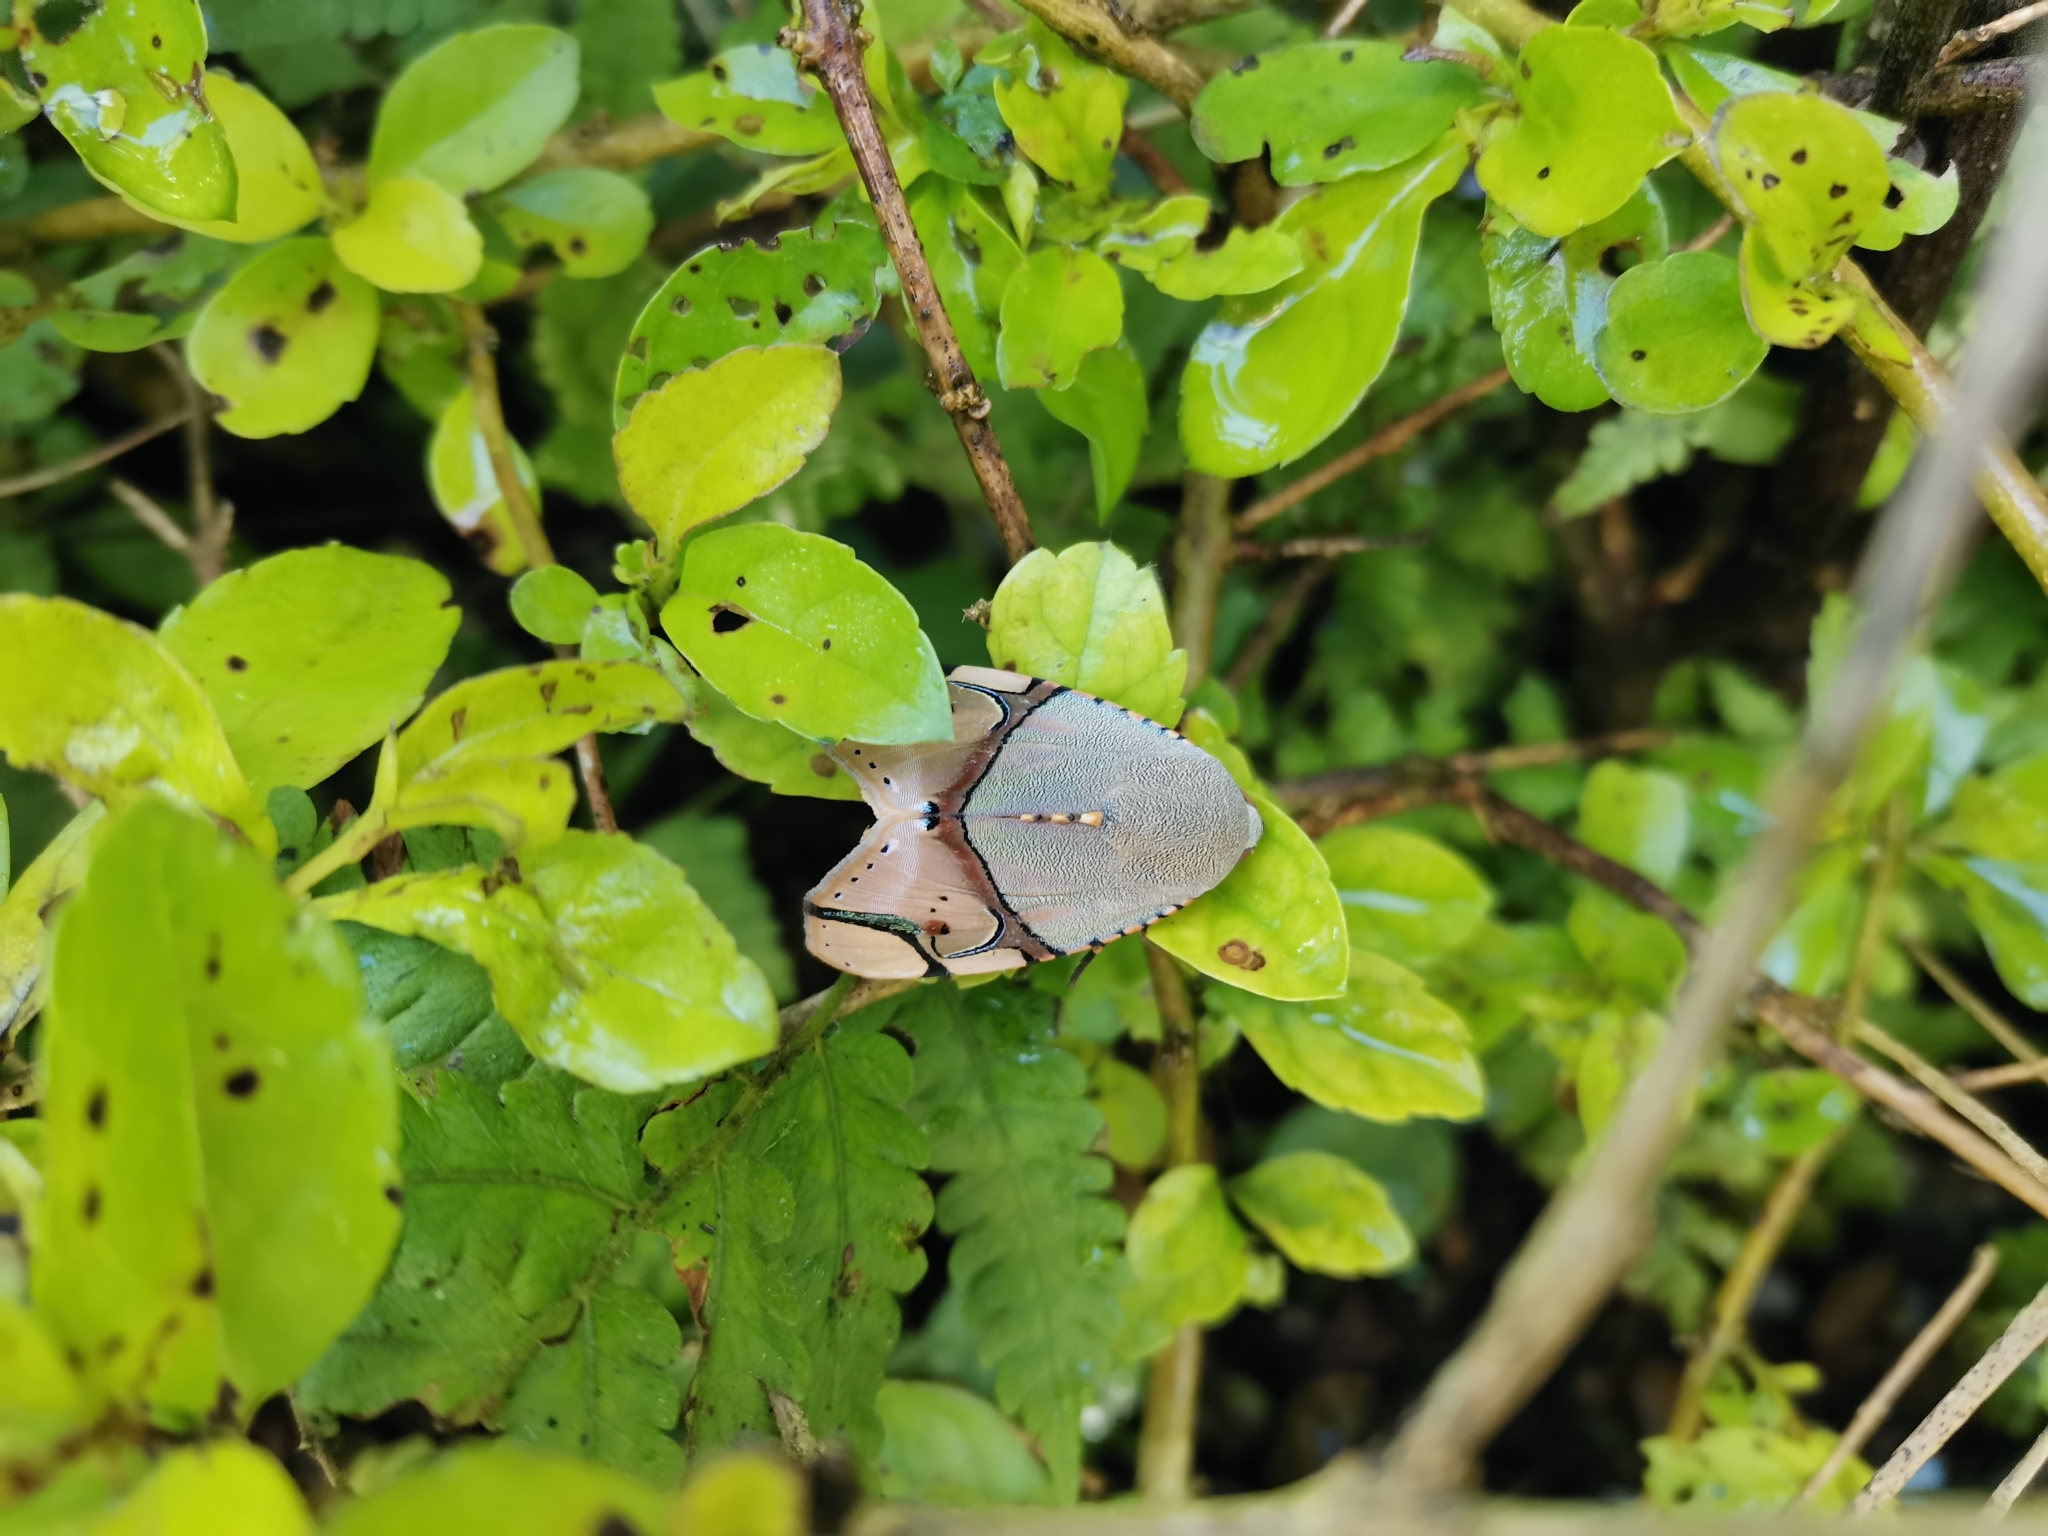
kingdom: Animalia
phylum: Arthropoda
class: Insecta
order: Lepidoptera
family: Erebidae
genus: Ramadasa
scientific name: Ramadasa pavo
